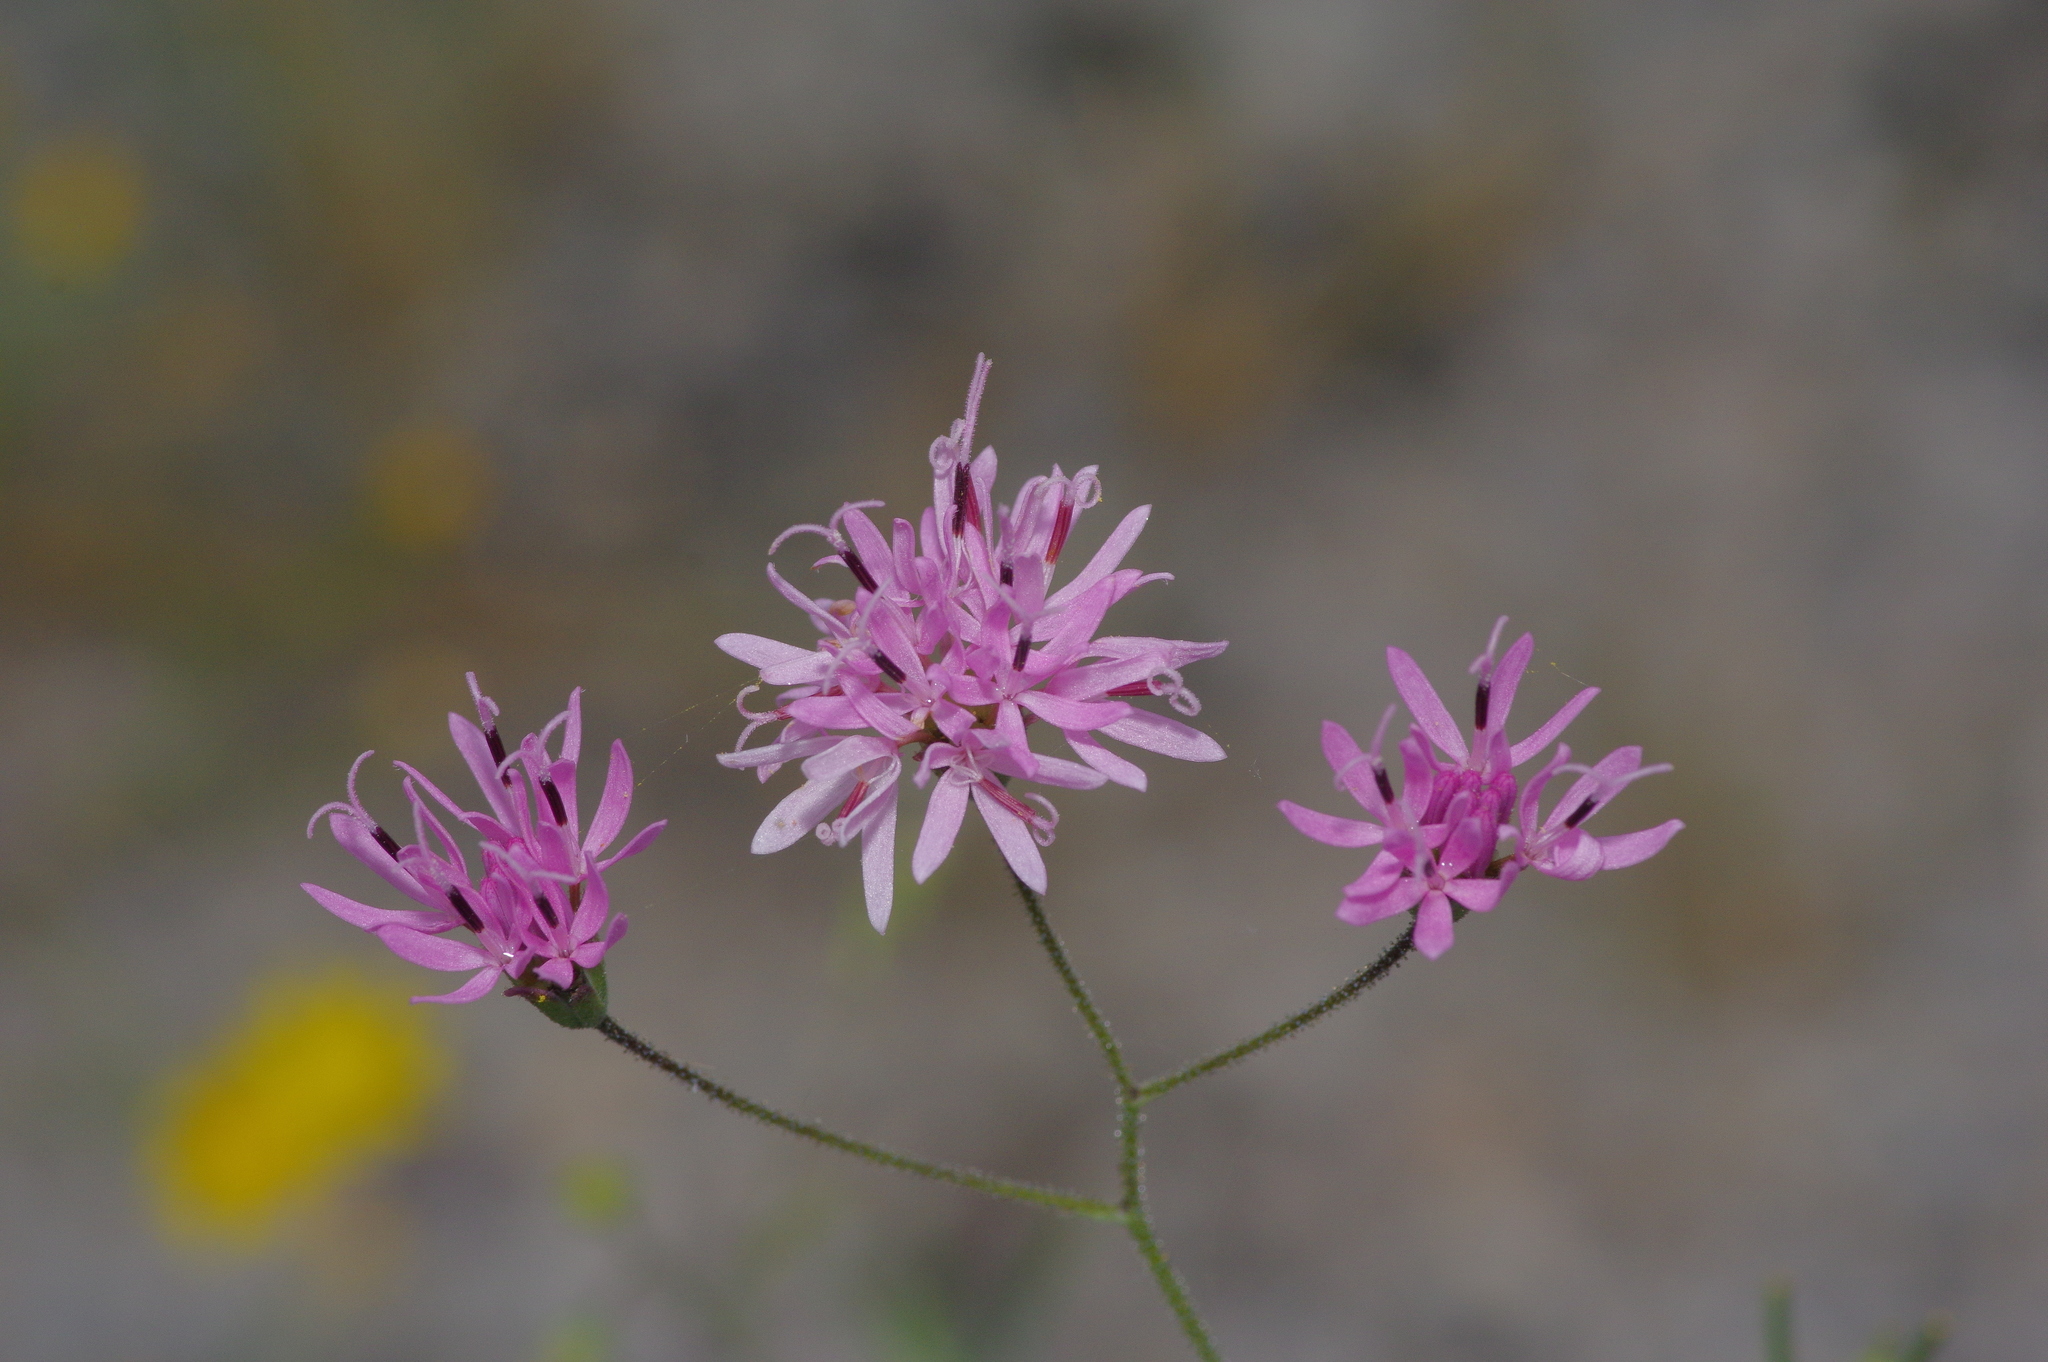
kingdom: Plantae
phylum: Tracheophyta
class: Magnoliopsida
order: Asterales
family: Asteraceae
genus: Palafoxia
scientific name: Palafoxia callosa
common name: Small palafox
